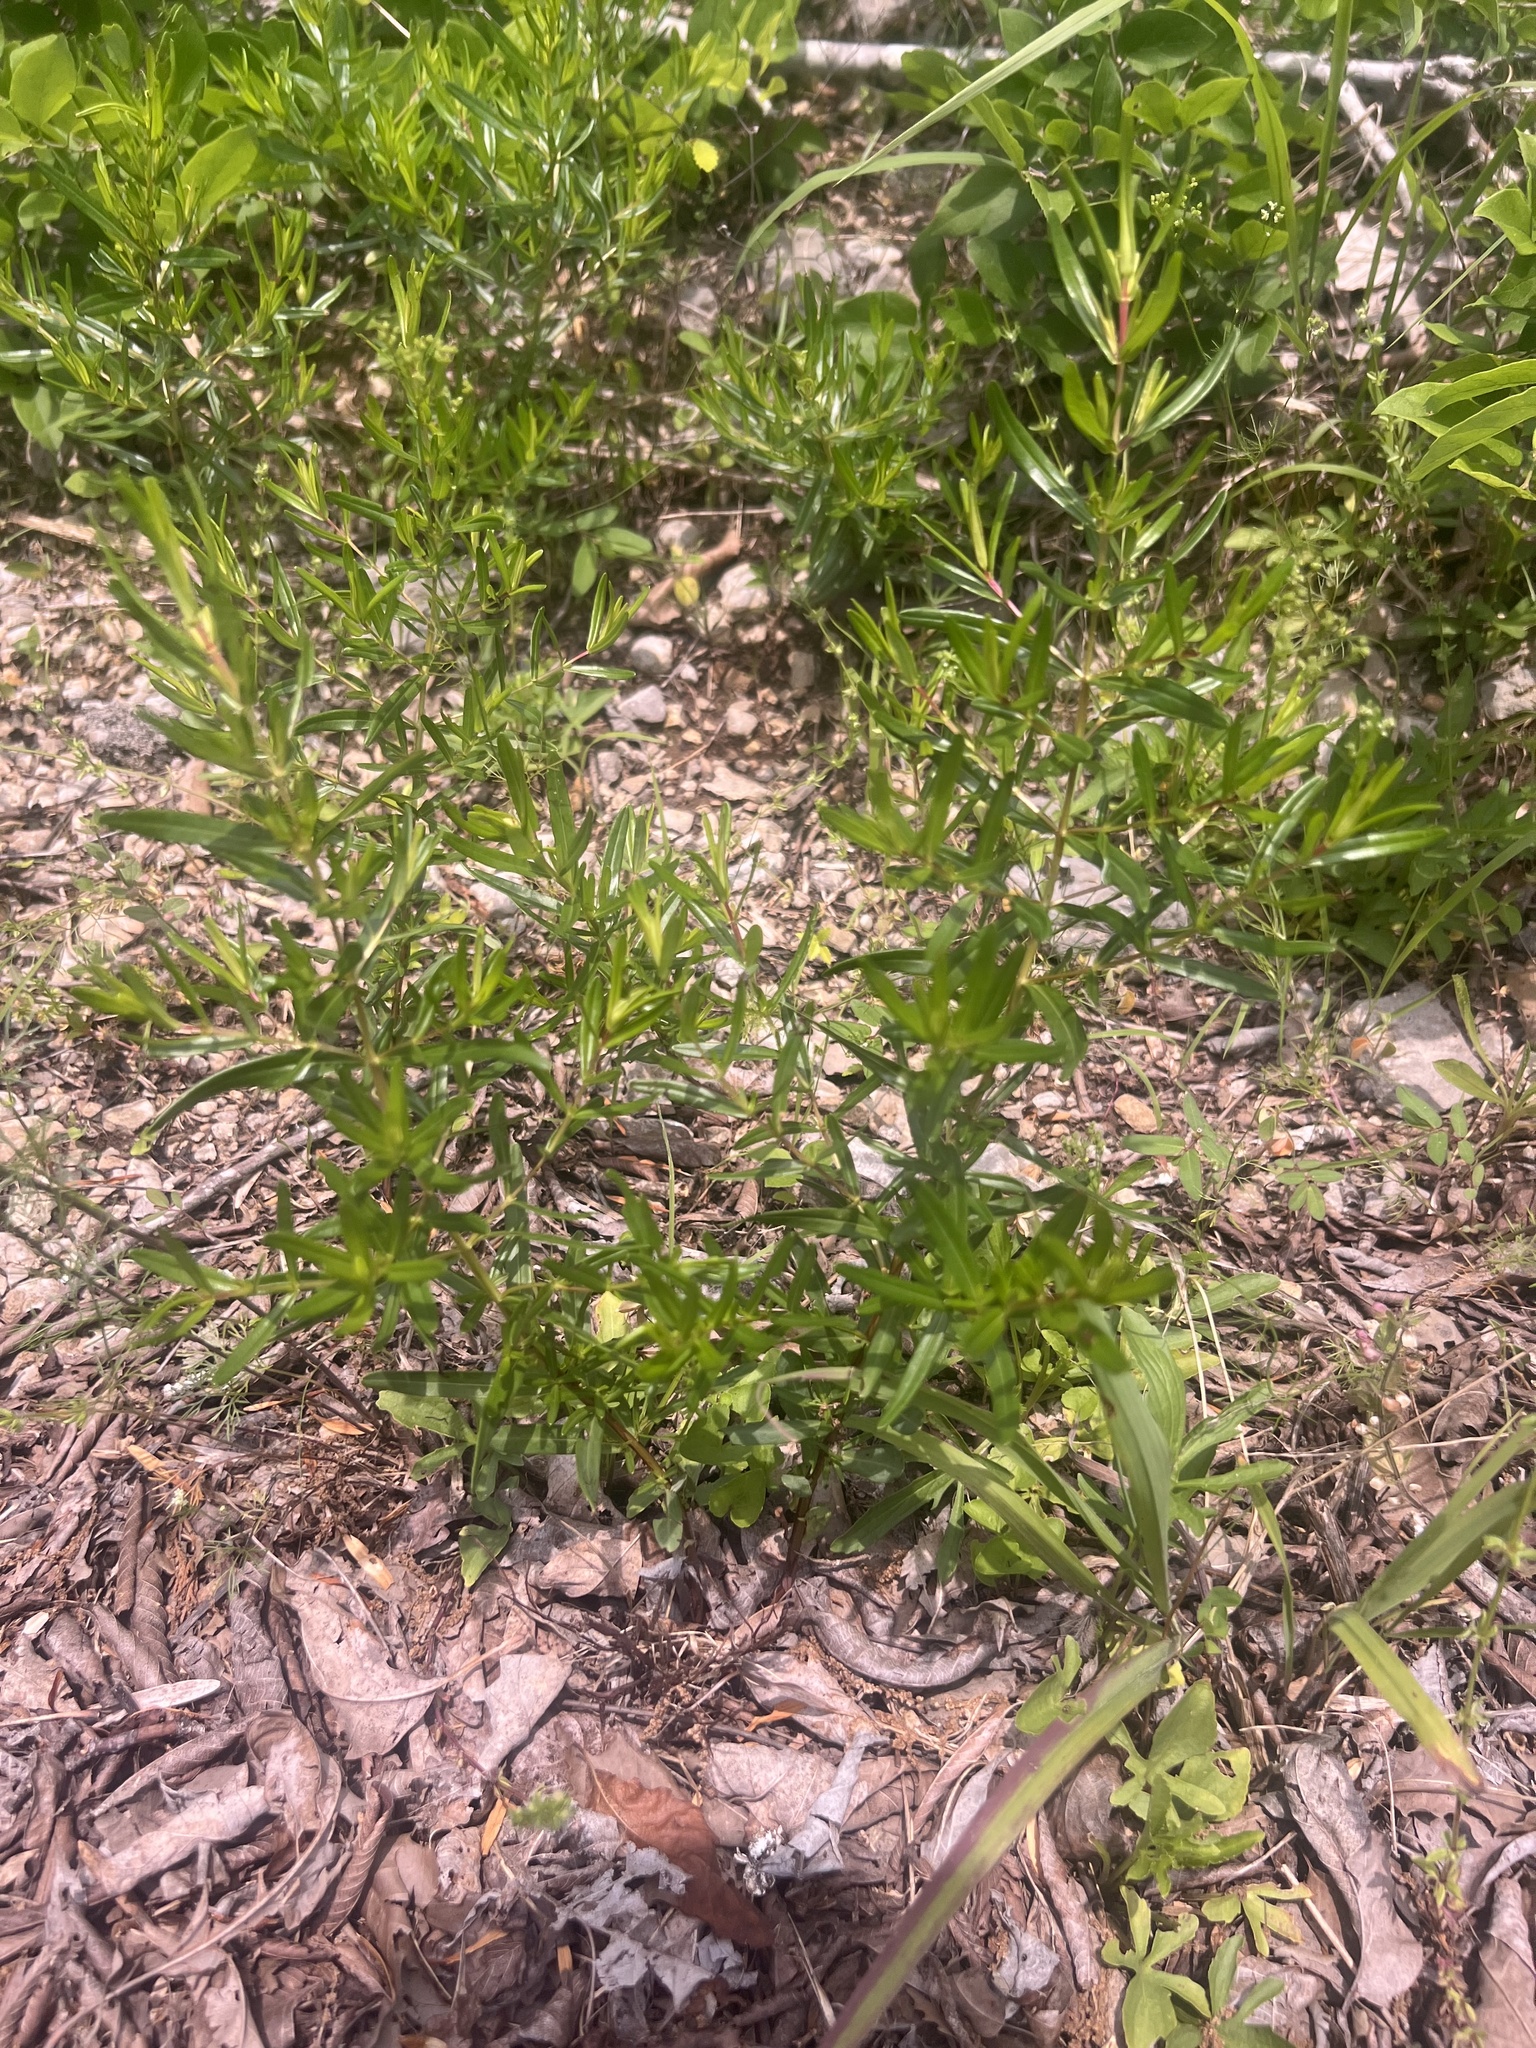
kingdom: Plantae
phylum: Tracheophyta
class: Magnoliopsida
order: Malpighiales
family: Hypericaceae
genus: Hypericum
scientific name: Hypericum sphaerocarpum
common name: Round-fruited st. john's-wort
